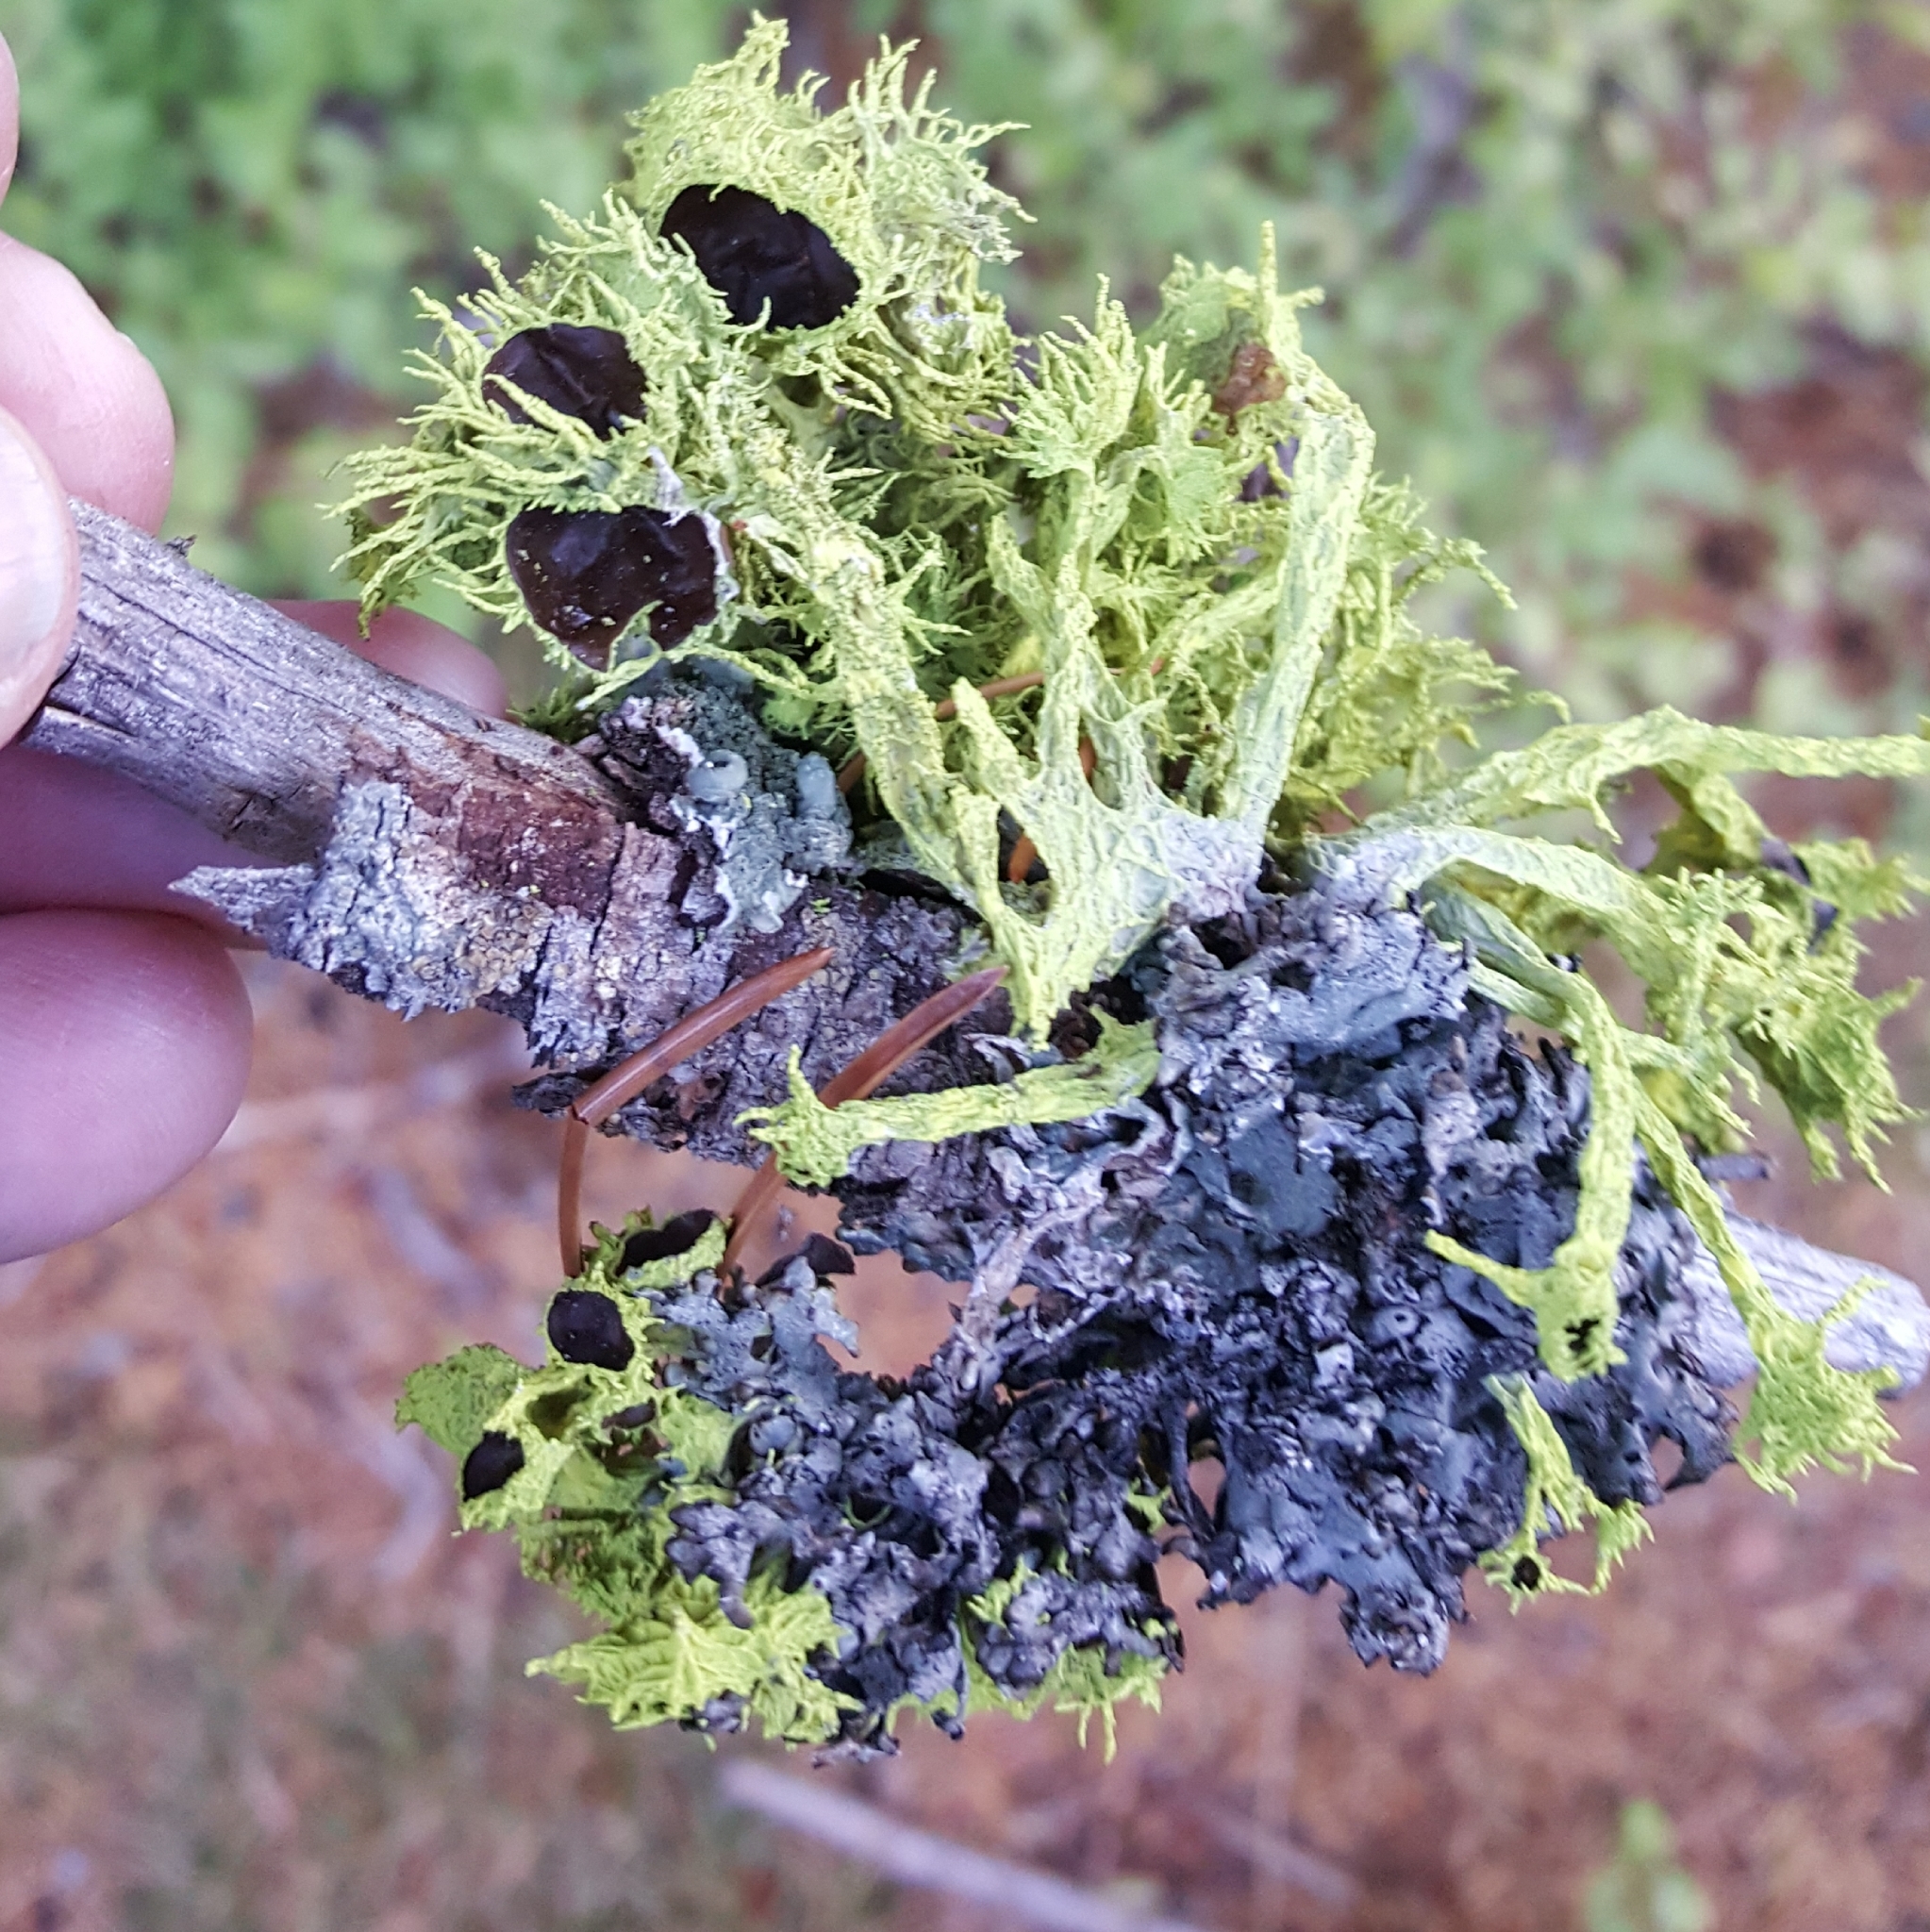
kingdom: Fungi
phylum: Ascomycota
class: Lecanoromycetes
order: Lecanorales
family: Parmeliaceae
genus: Letharia
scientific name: Letharia columbiana
